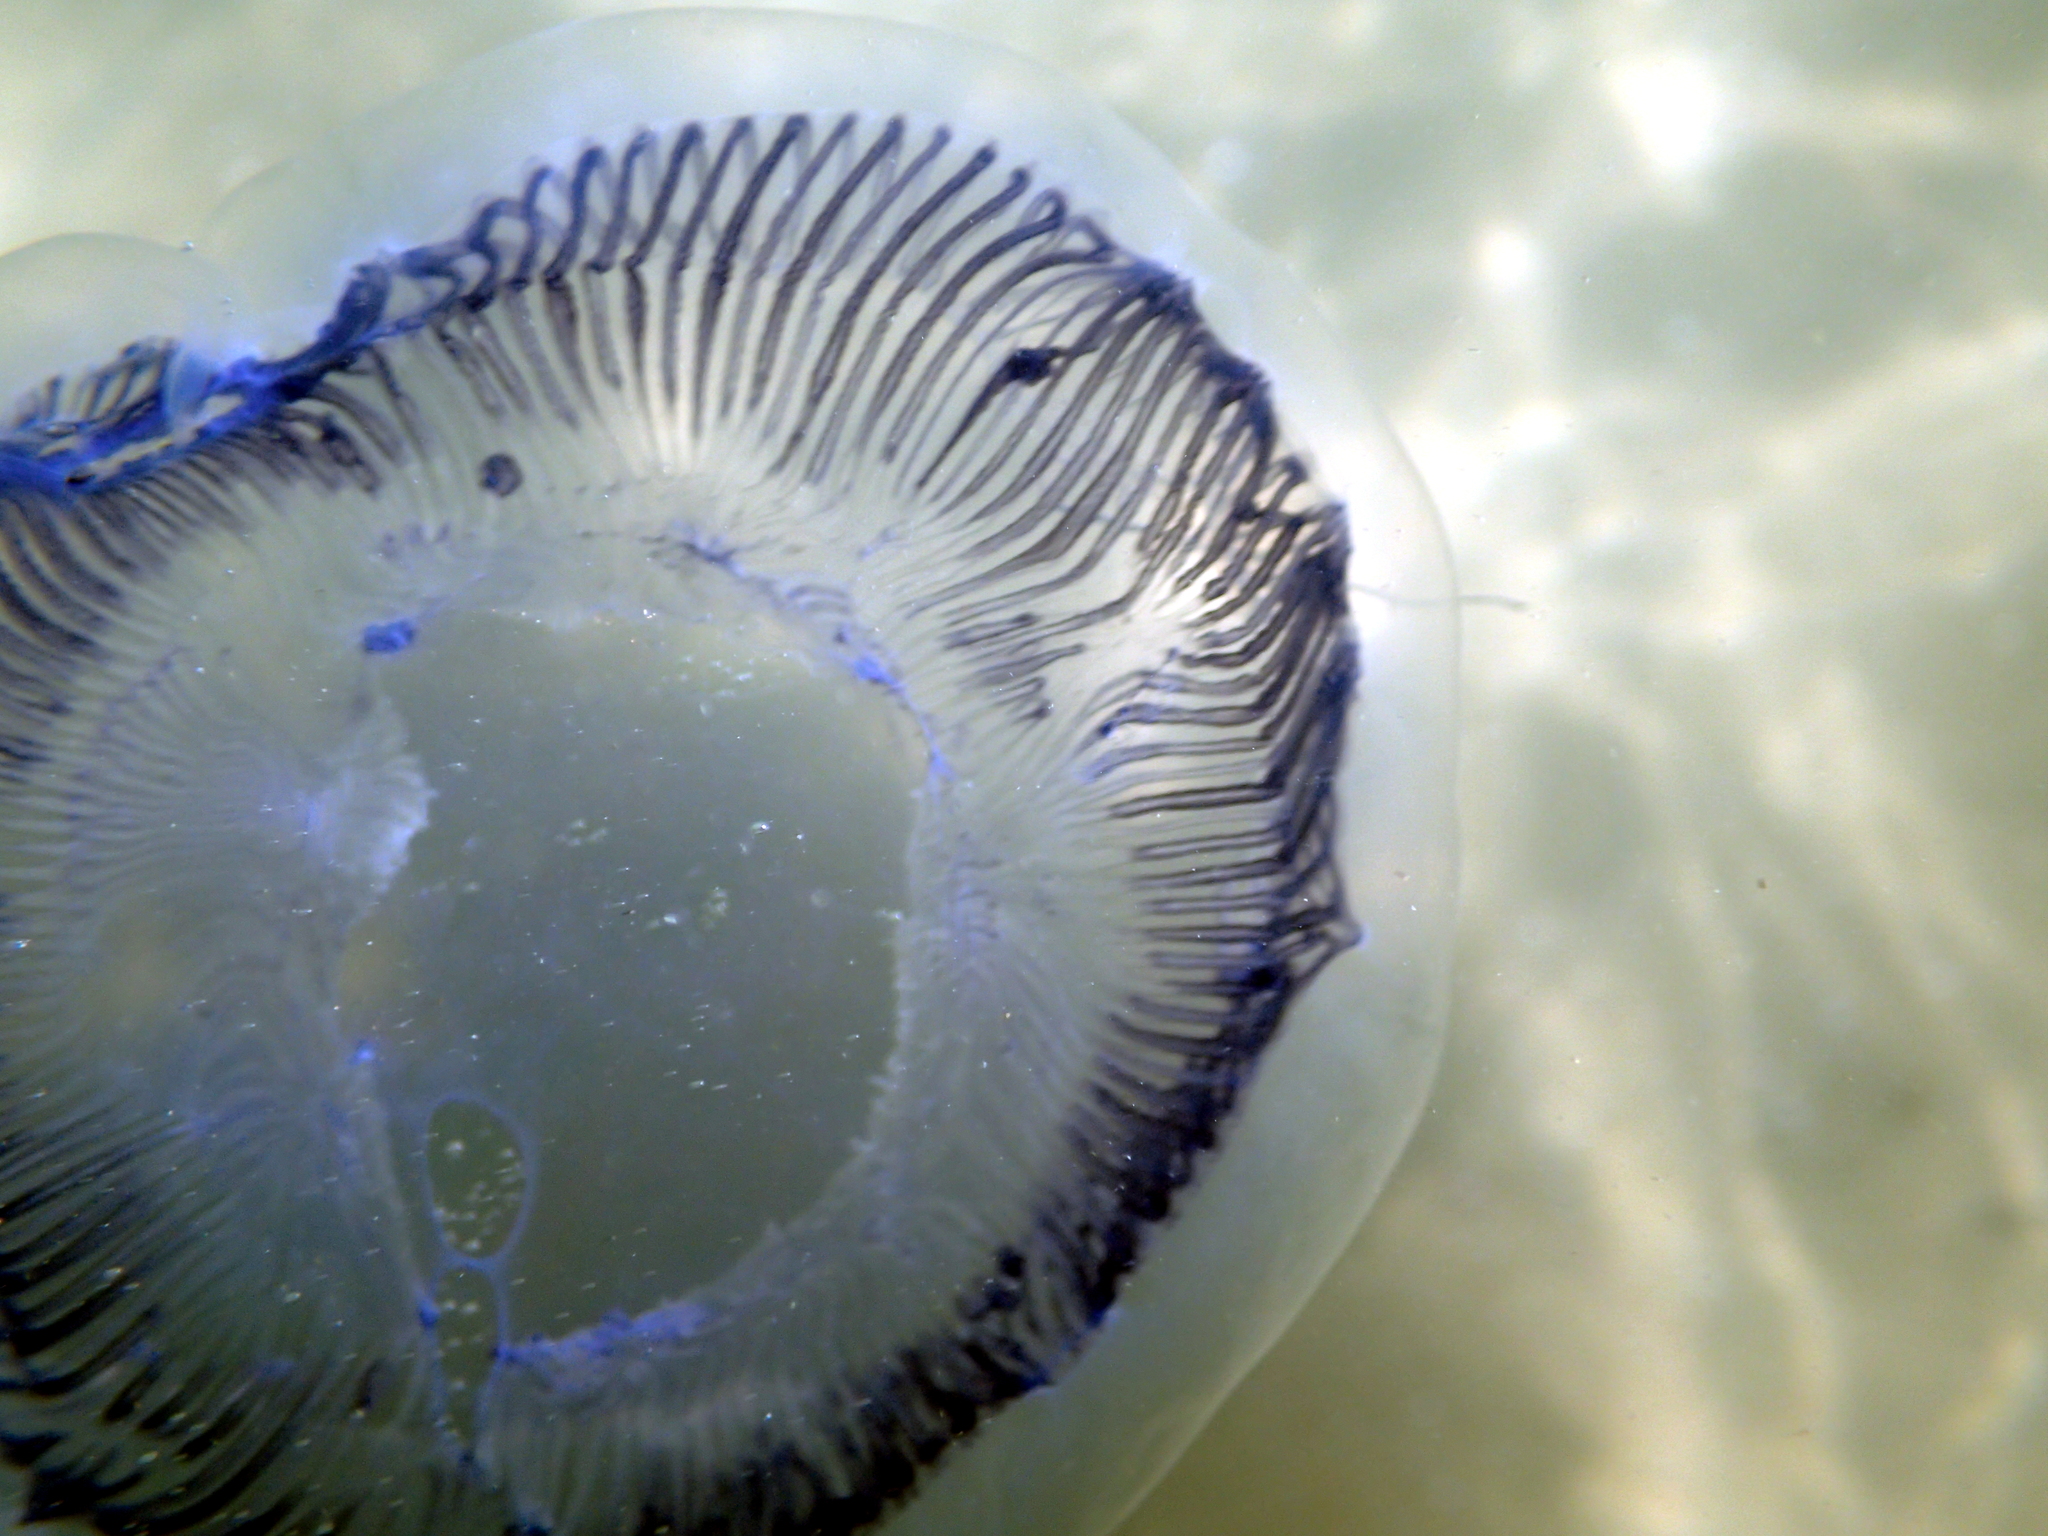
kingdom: Animalia
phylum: Cnidaria
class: Hydrozoa
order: Leptothecata
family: Aequoreidae
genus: Aequorea
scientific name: Aequorea forskalea
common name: Many-ribbed jellyfish
